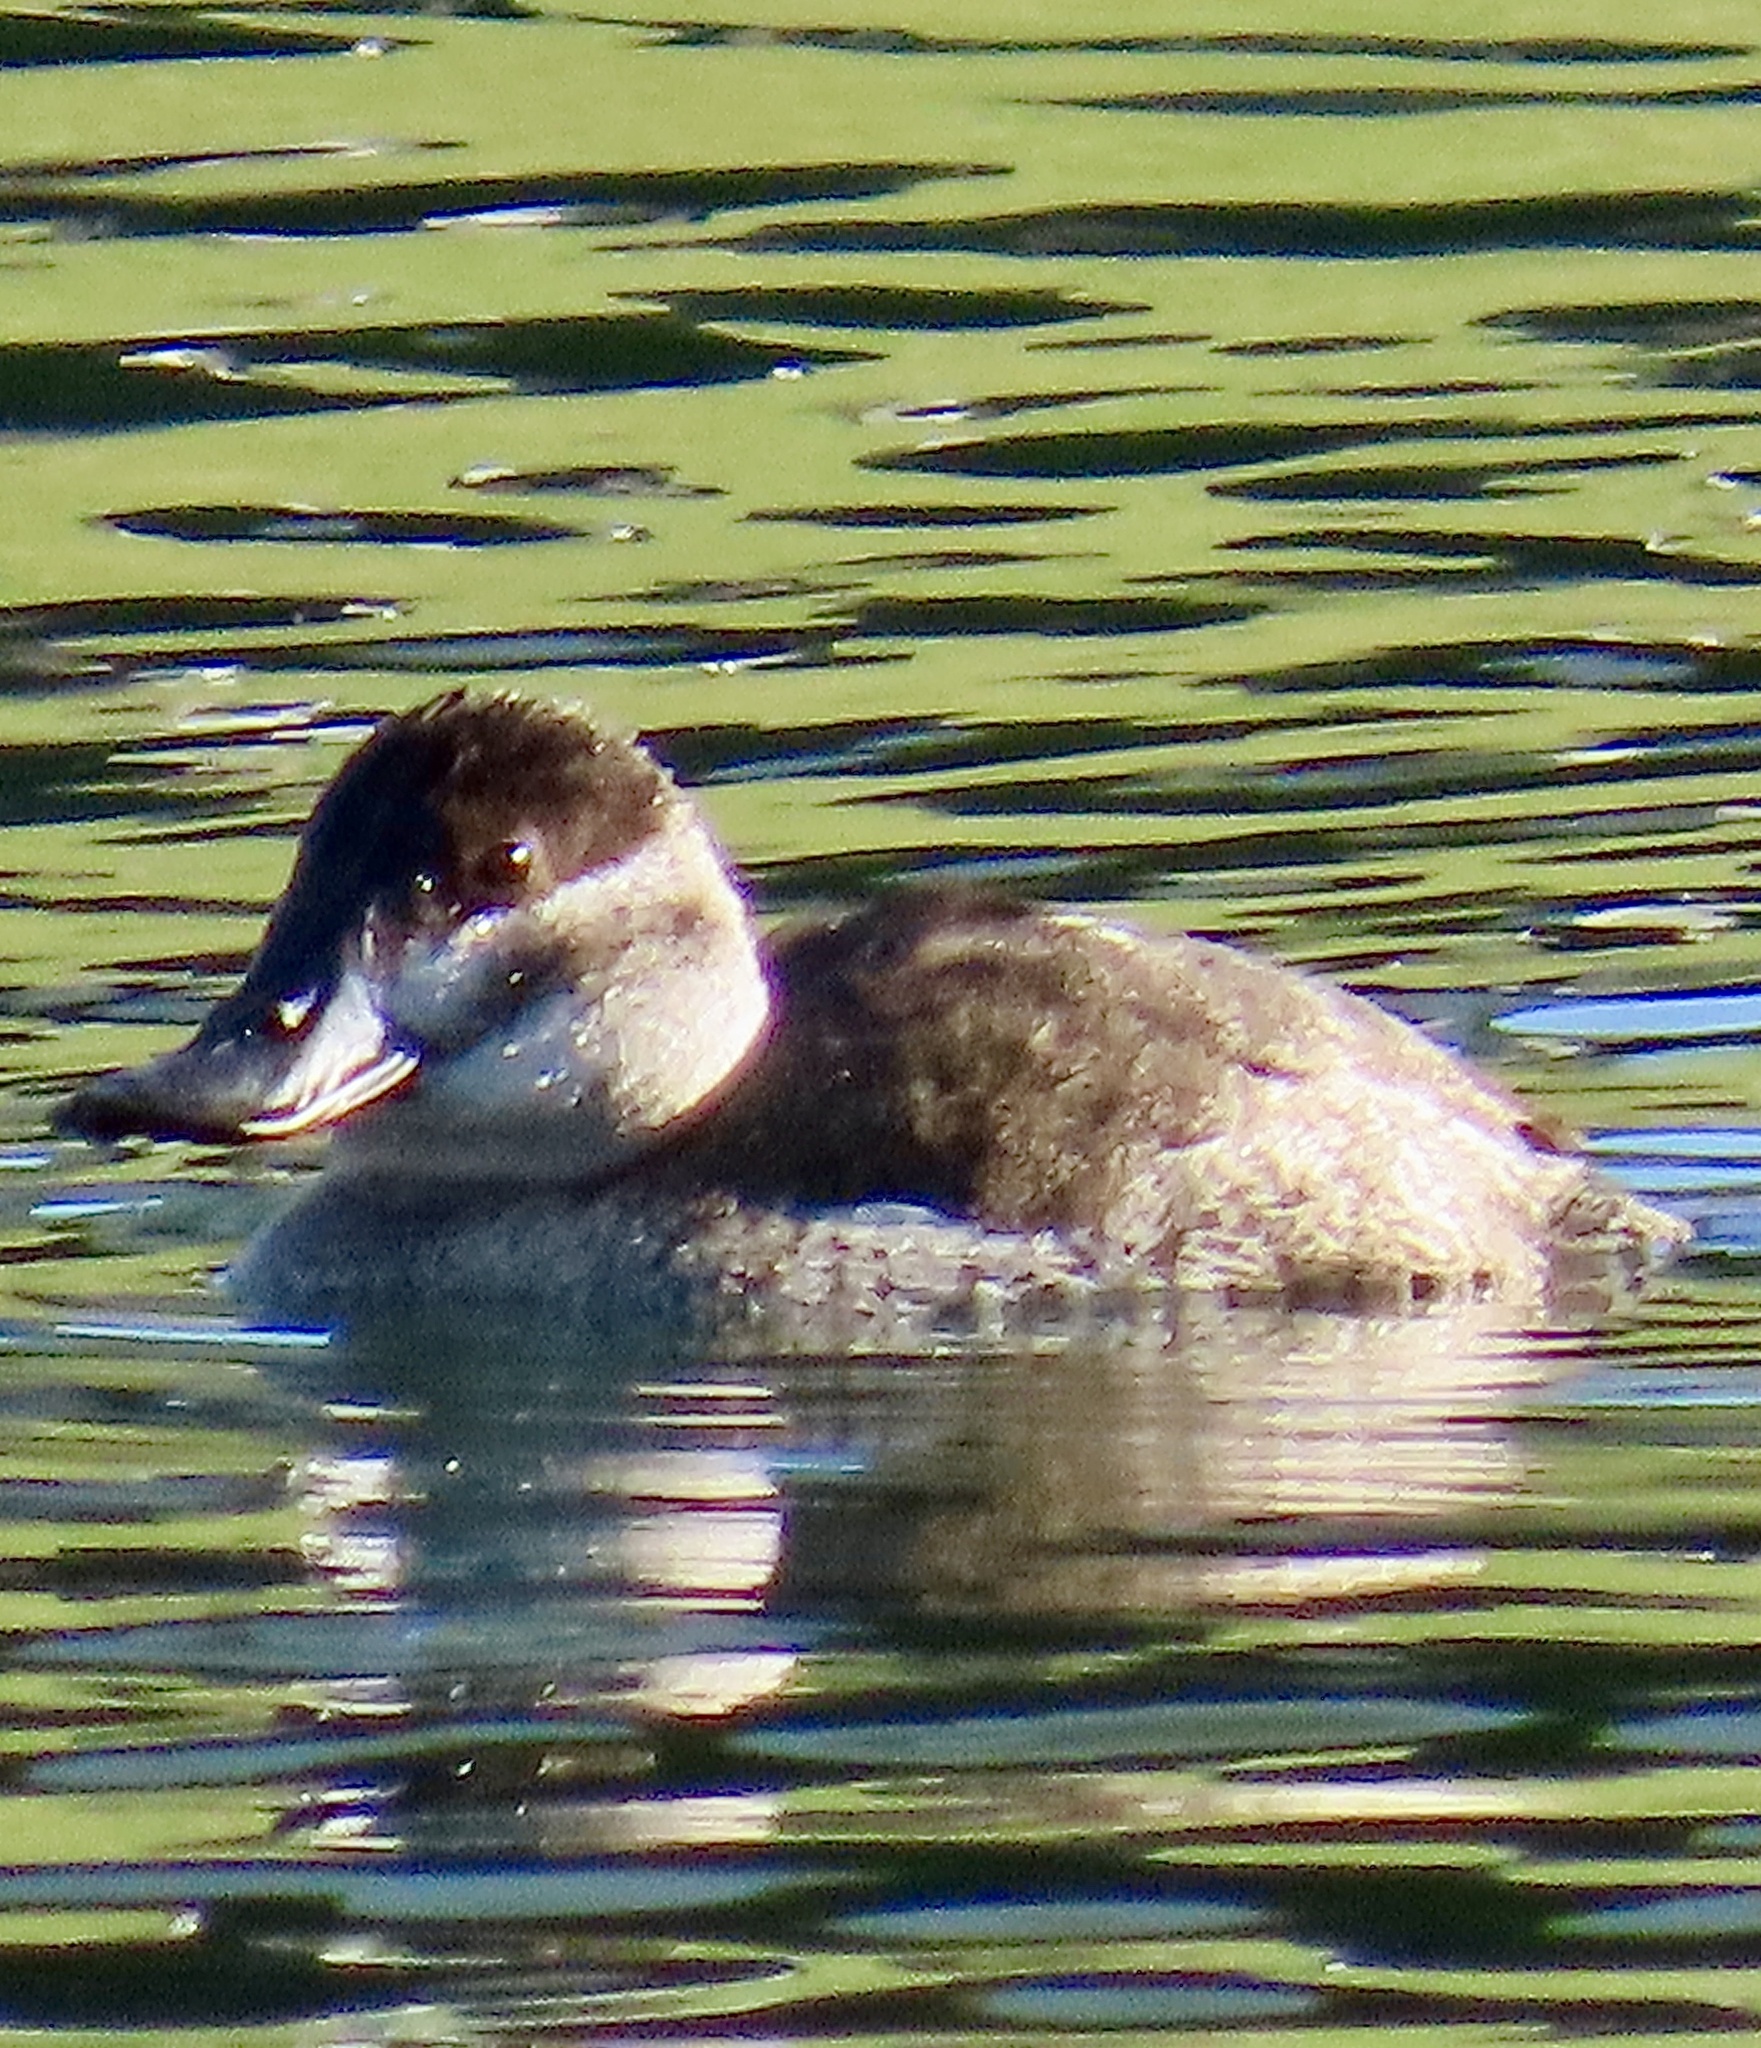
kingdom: Animalia
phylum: Chordata
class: Aves
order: Anseriformes
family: Anatidae
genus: Oxyura
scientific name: Oxyura jamaicensis
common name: Ruddy duck
